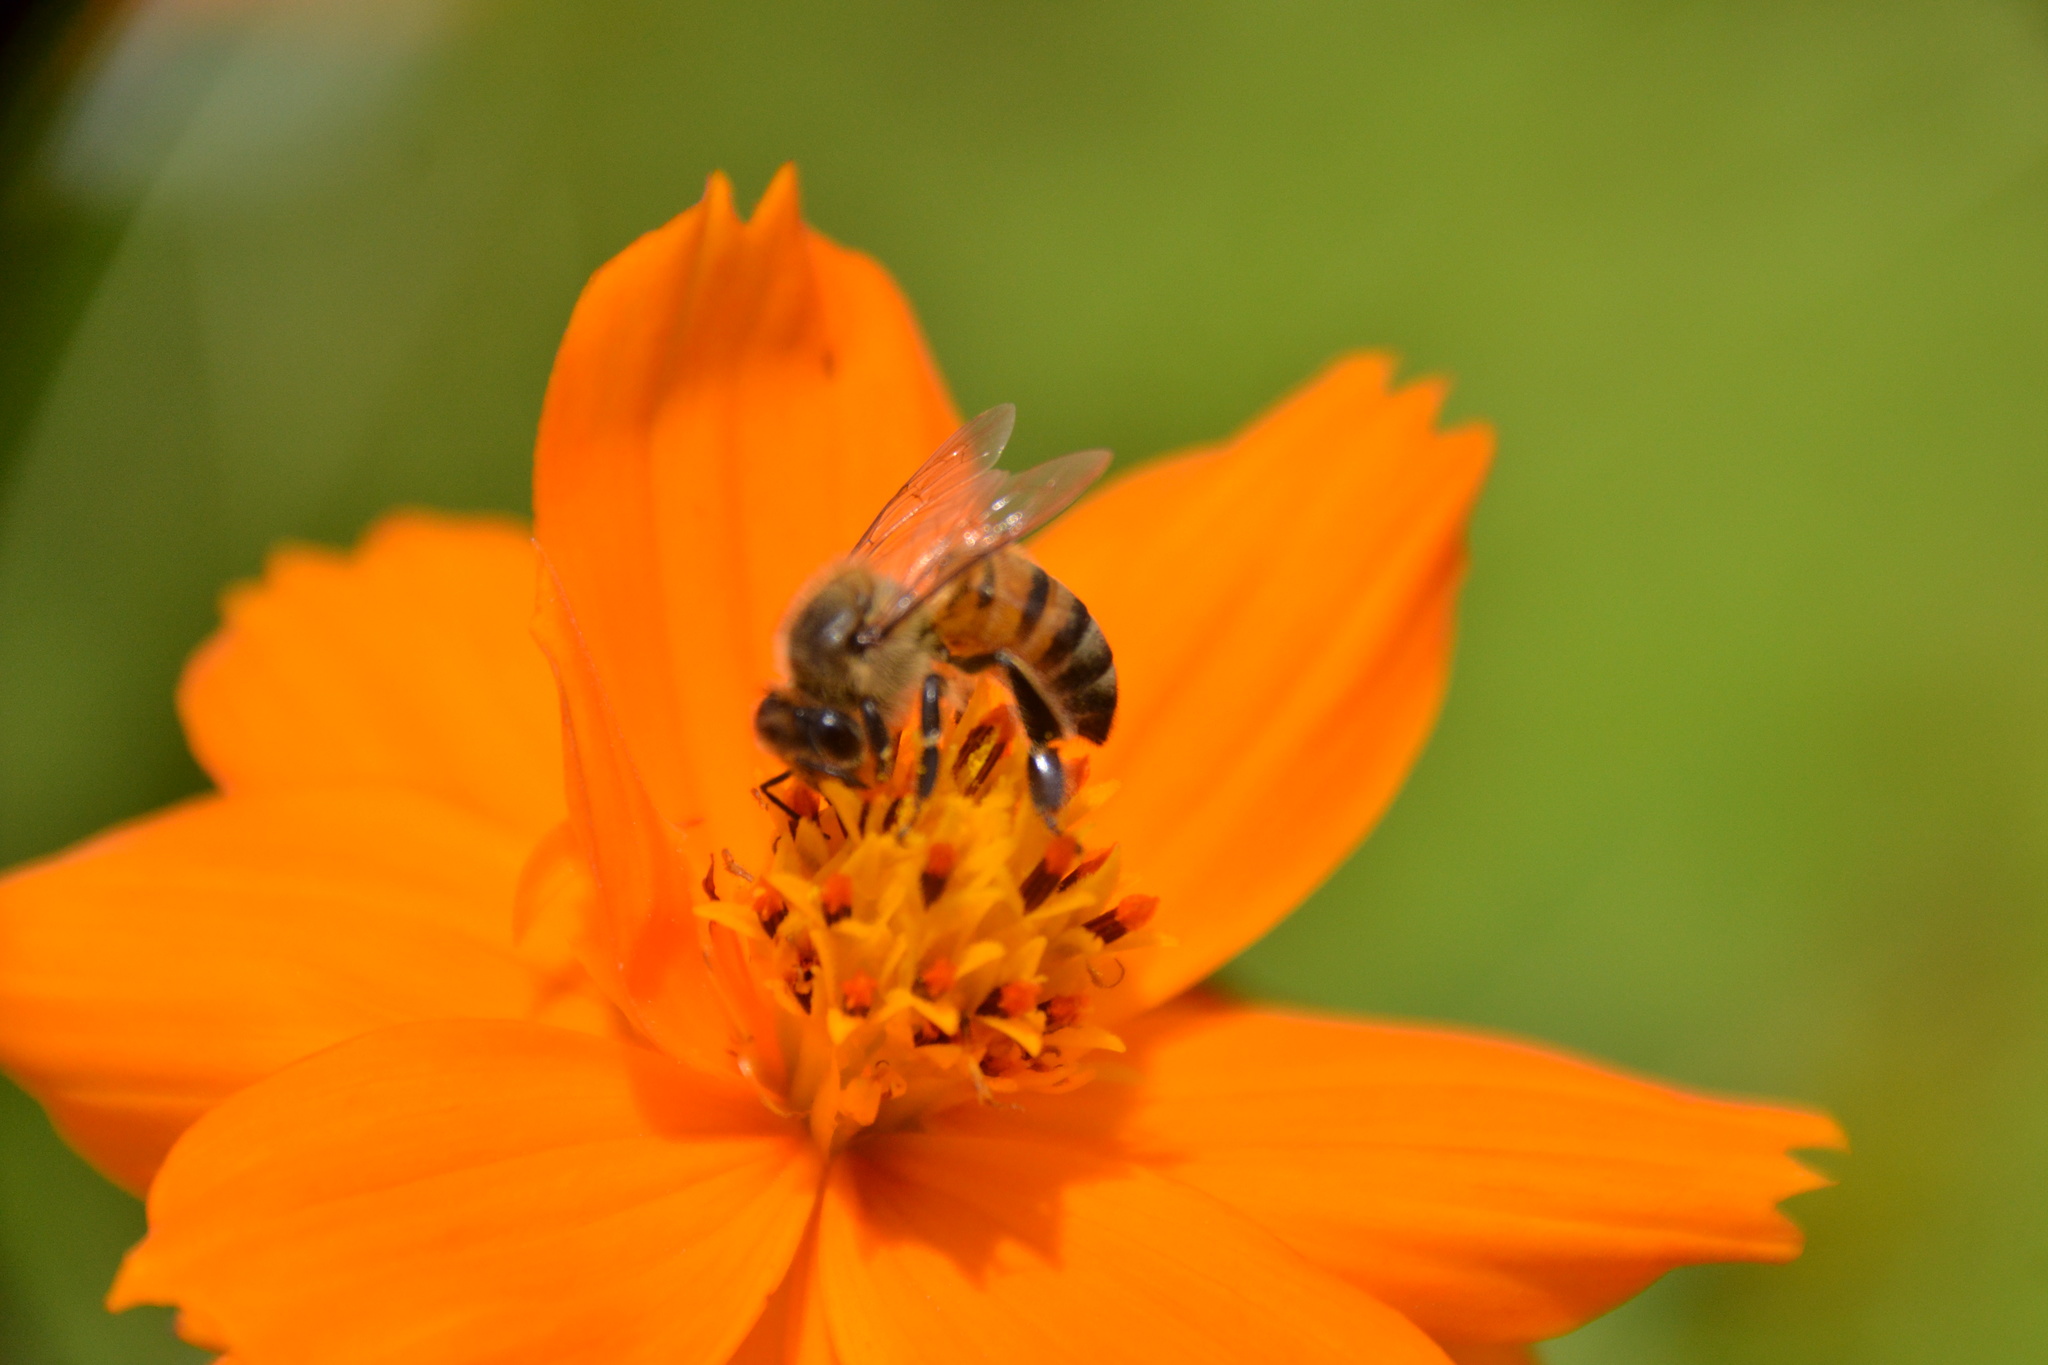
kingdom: Animalia
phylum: Arthropoda
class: Insecta
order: Hymenoptera
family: Apidae
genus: Apis
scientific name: Apis mellifera
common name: Honey bee
